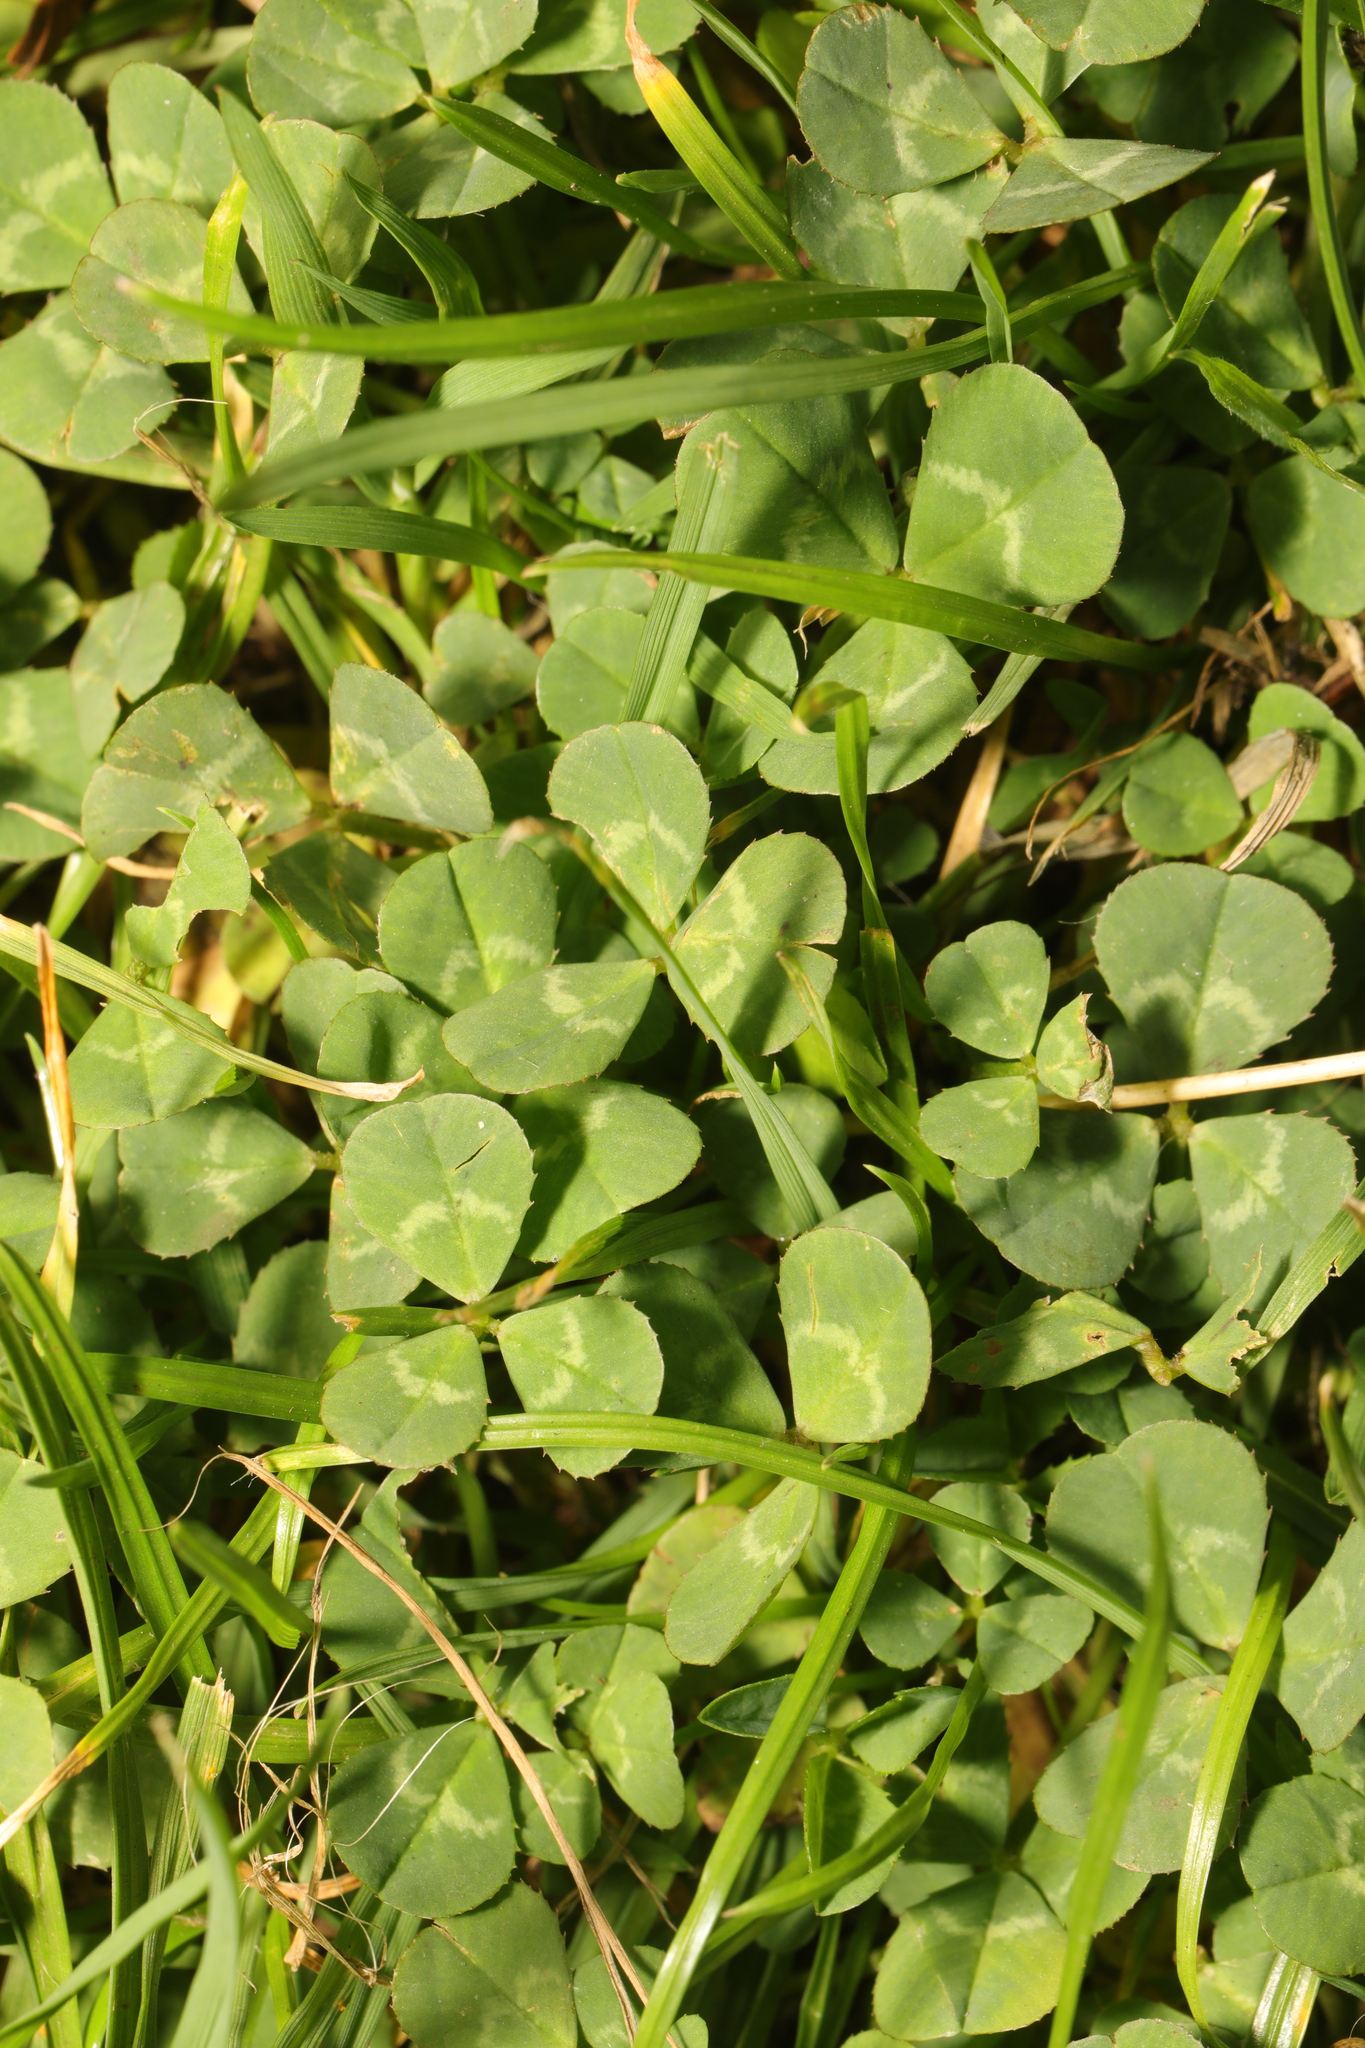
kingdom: Plantae
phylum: Tracheophyta
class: Magnoliopsida
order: Fabales
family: Fabaceae
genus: Trifolium
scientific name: Trifolium repens
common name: White clover
